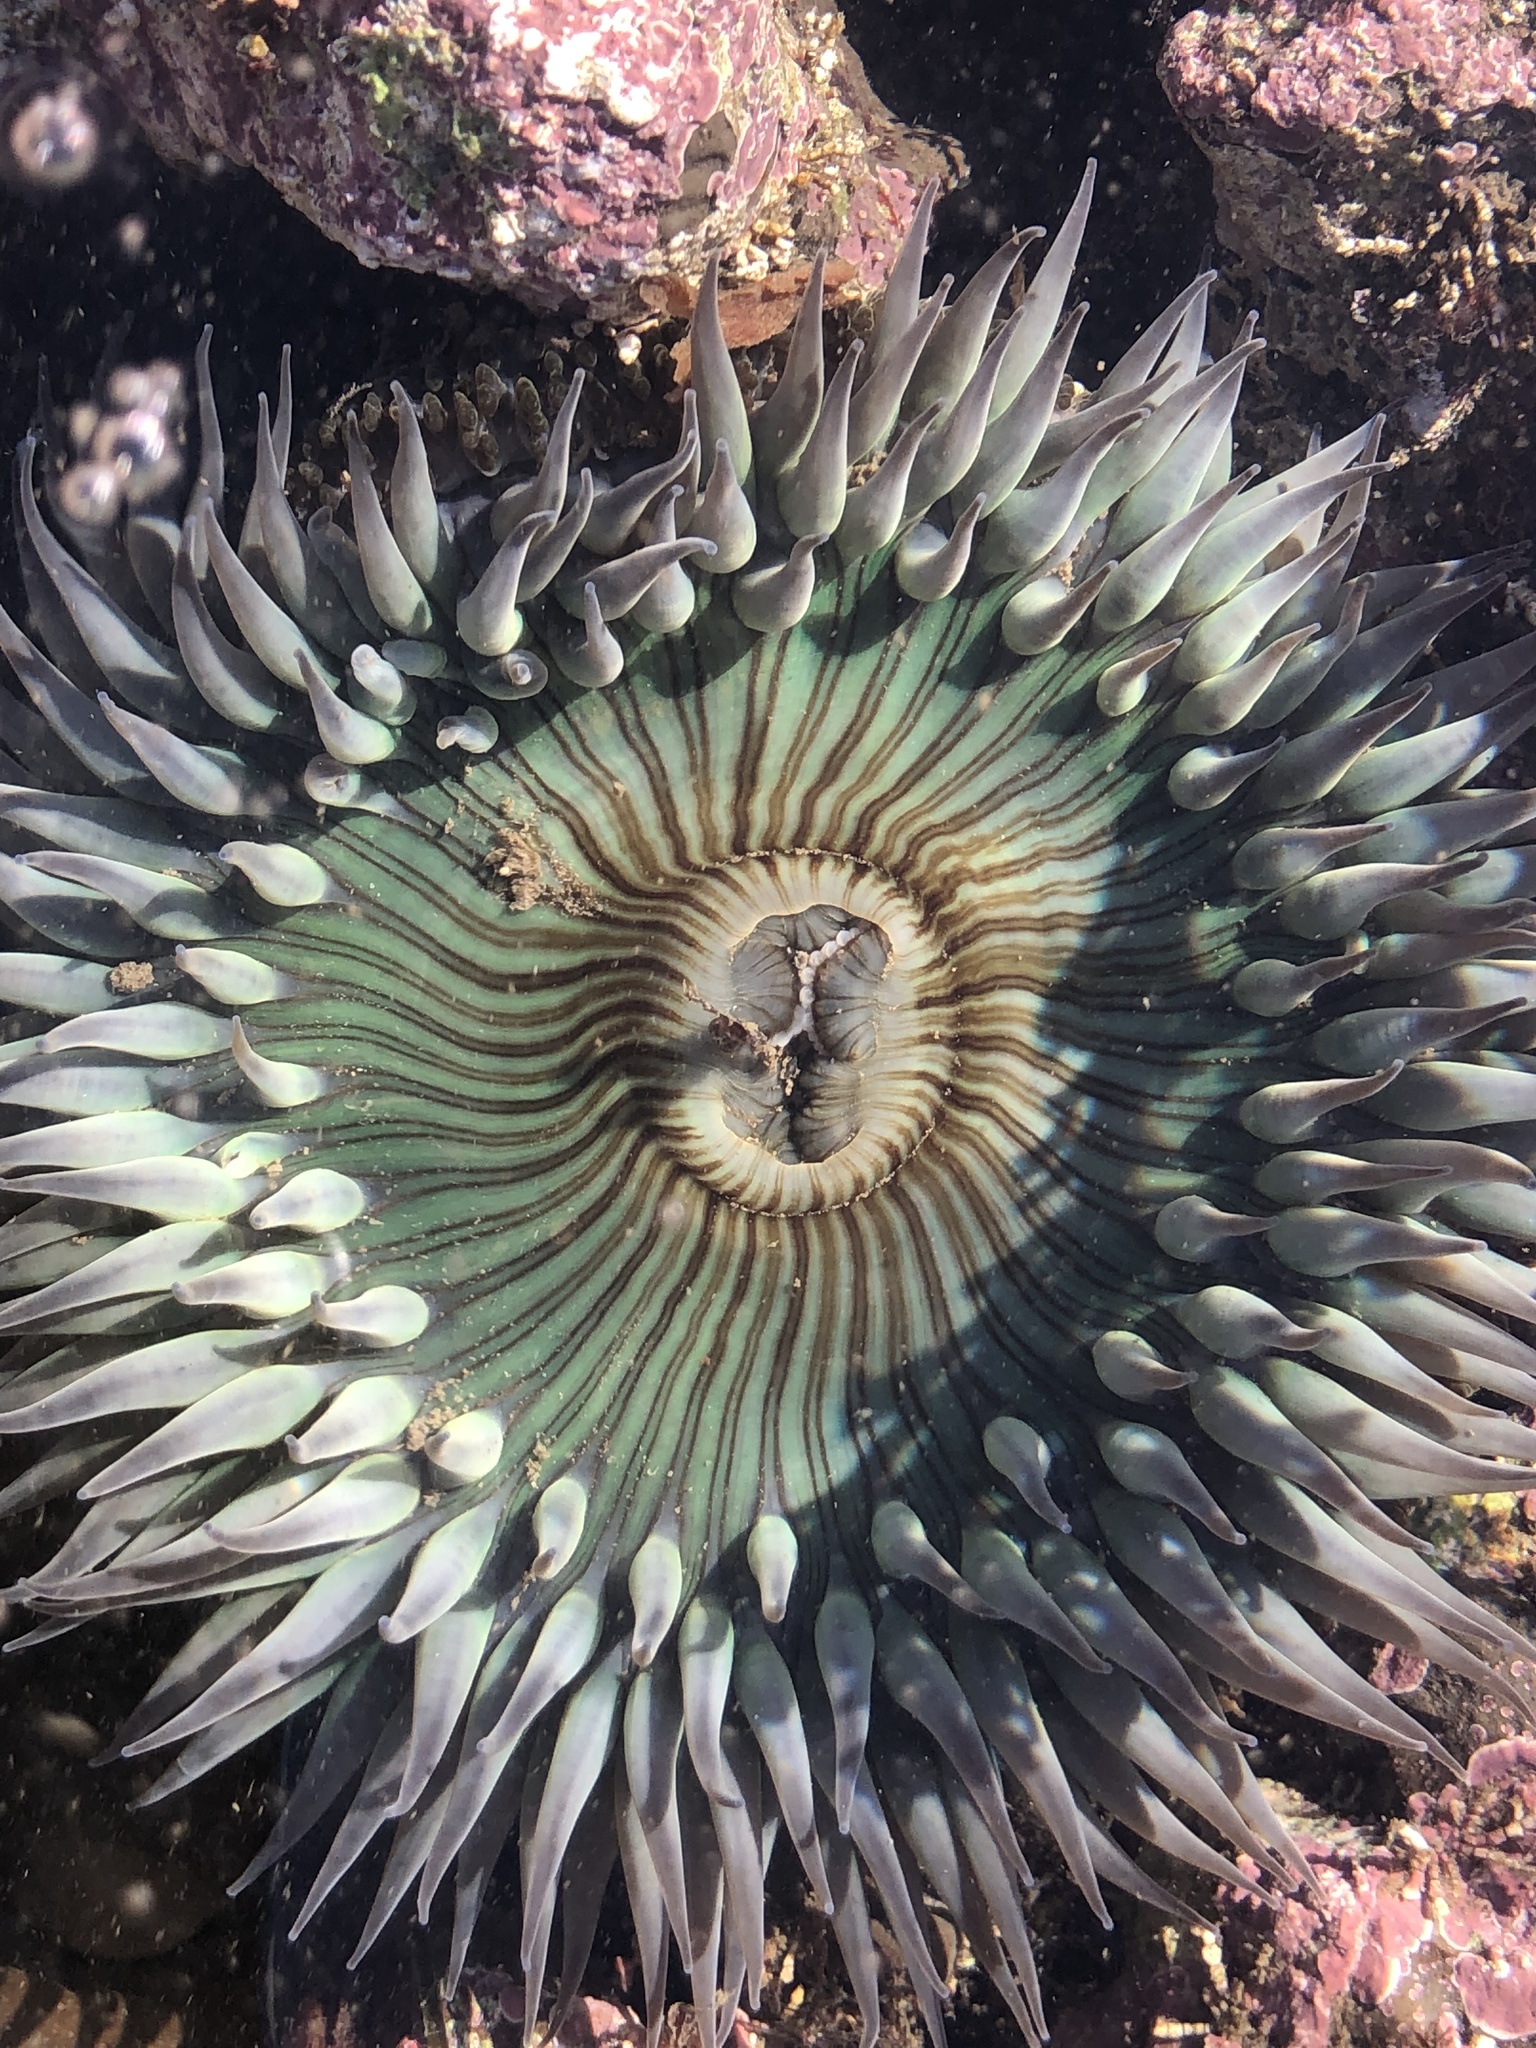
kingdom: Animalia
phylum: Cnidaria
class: Anthozoa
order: Actiniaria
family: Actiniidae
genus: Anthopleura
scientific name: Anthopleura sola
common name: Sun anemone
